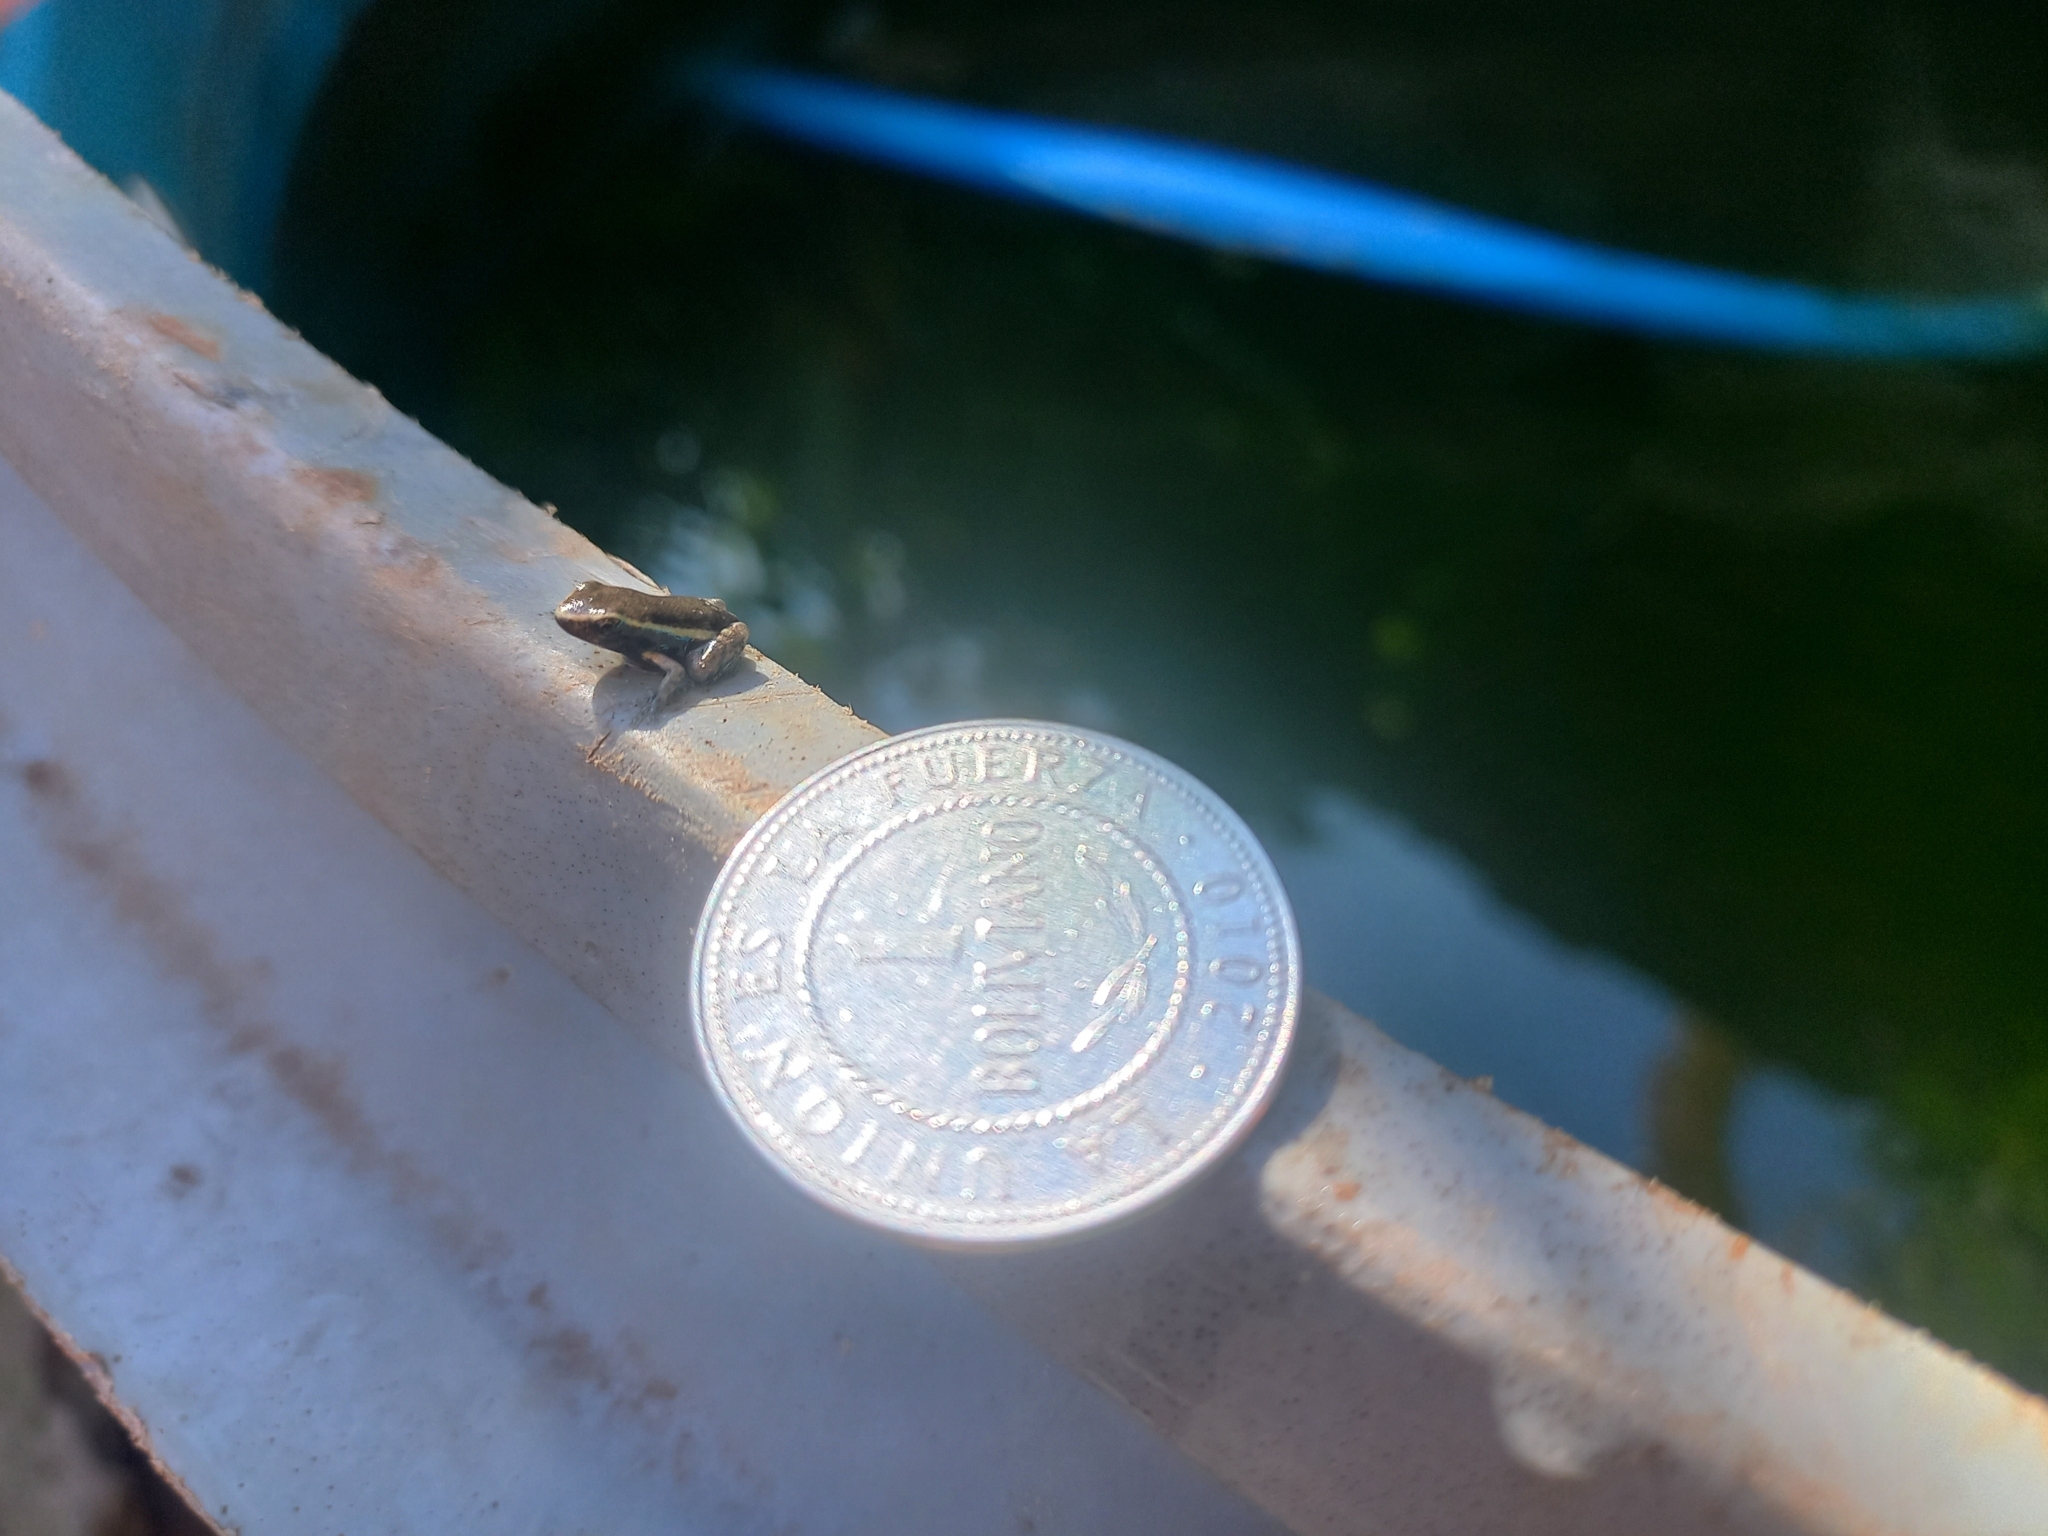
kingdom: Animalia
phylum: Chordata
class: Amphibia
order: Anura
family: Dendrobatidae
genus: Ameerega
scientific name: Ameerega picta
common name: Spot-legged poison frog
